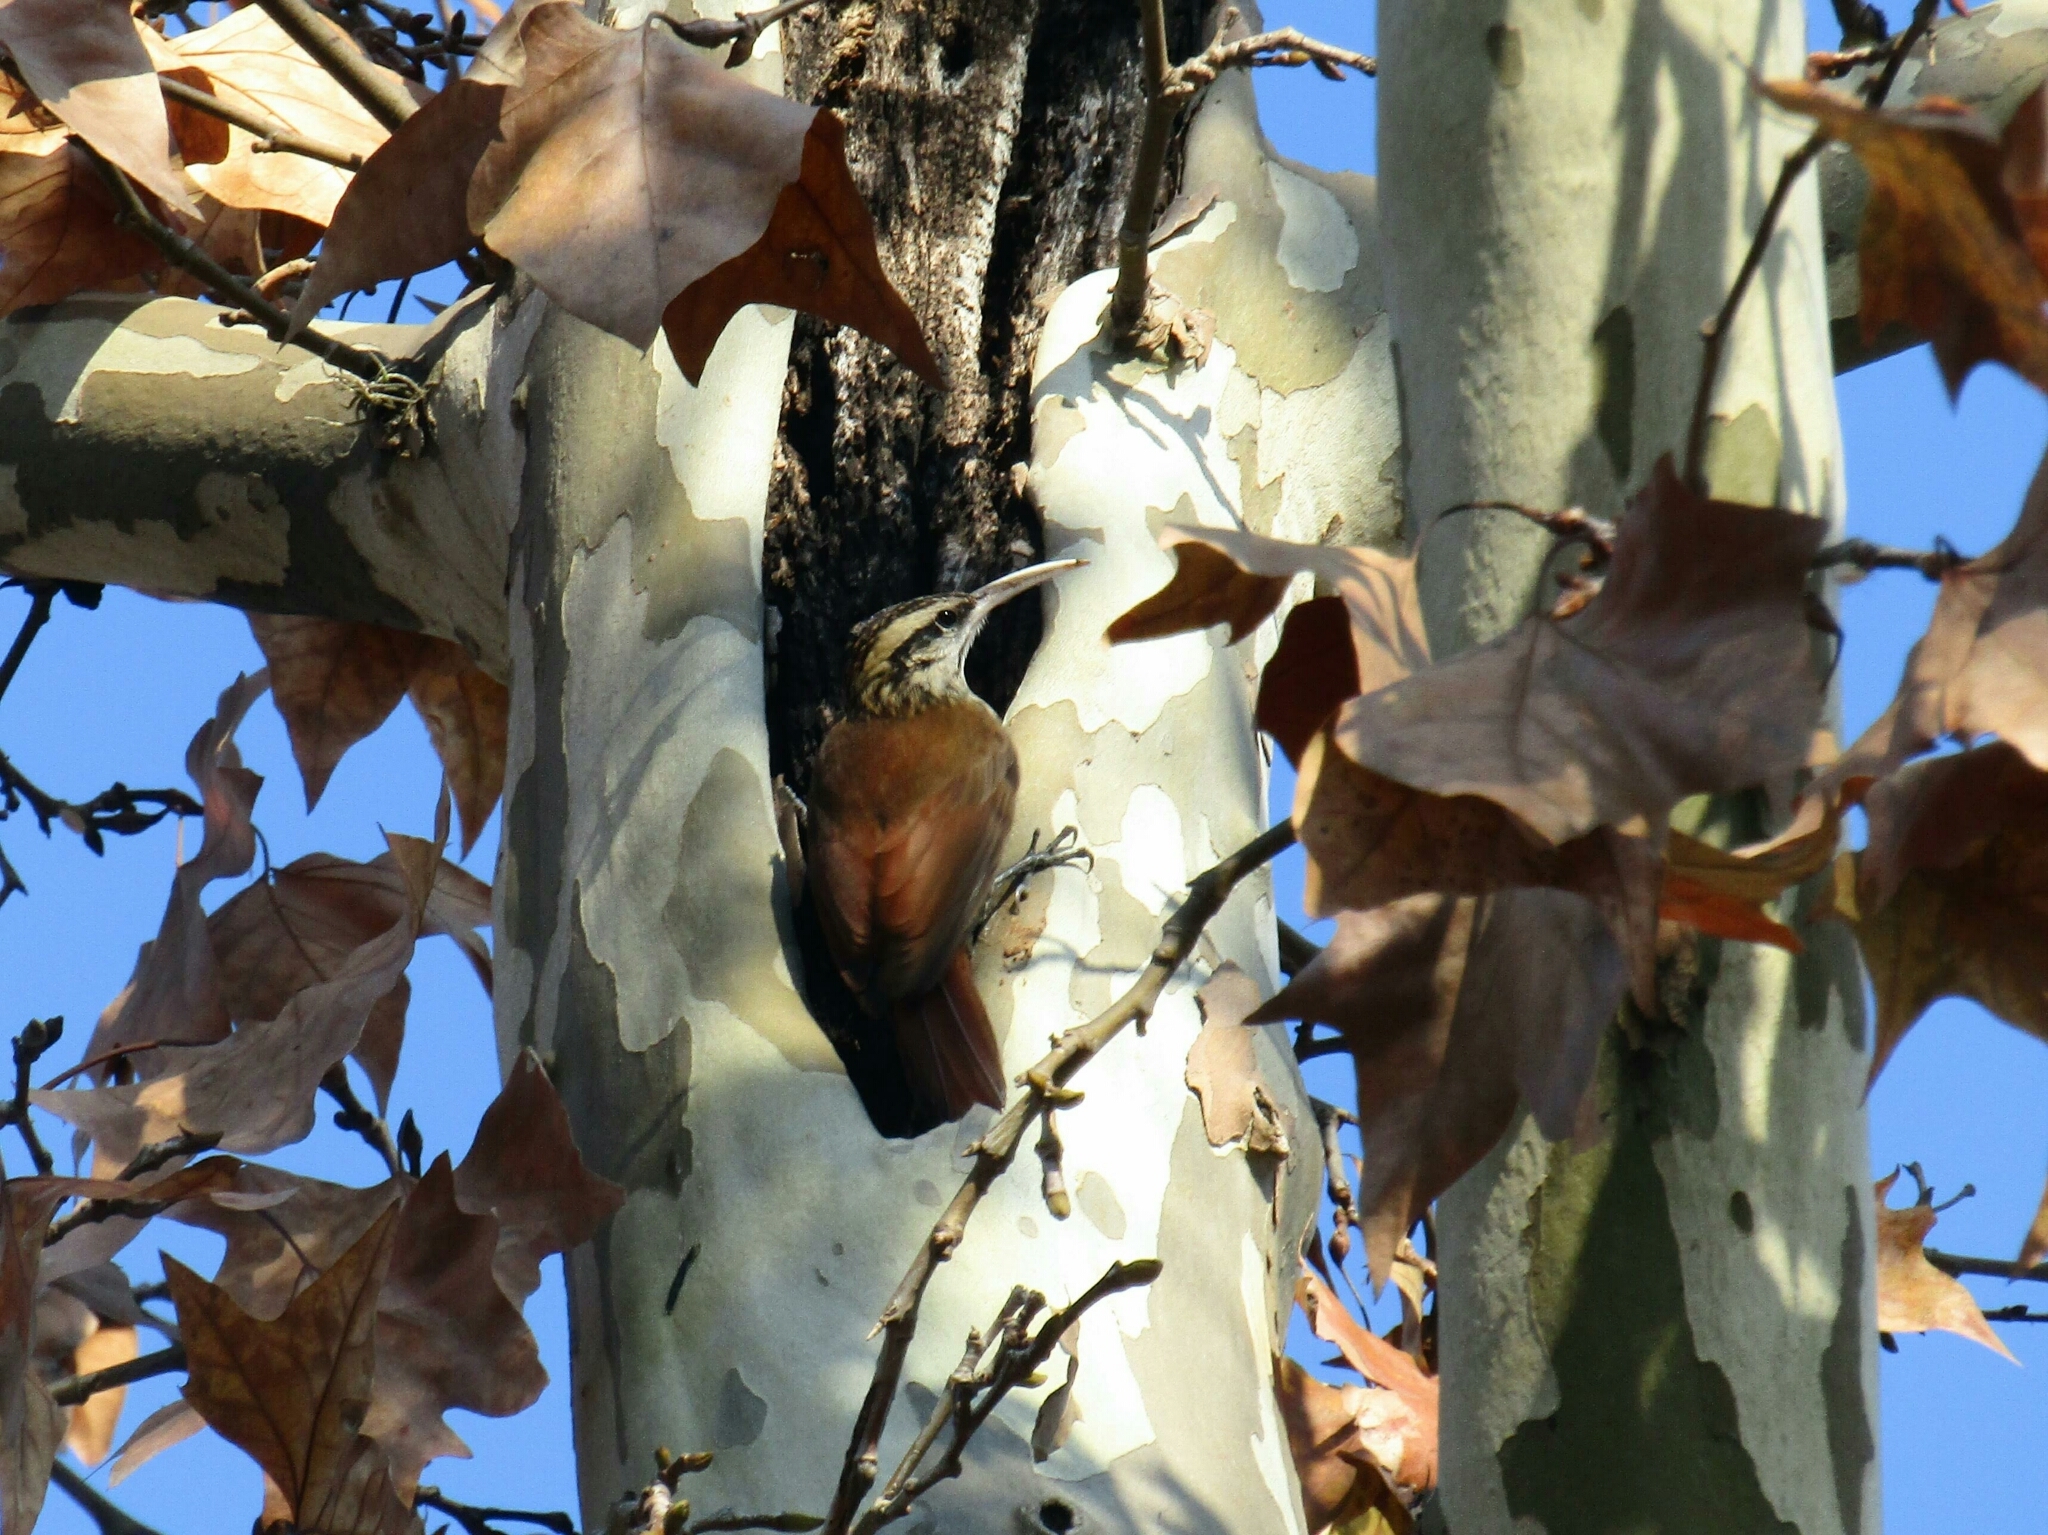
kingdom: Animalia
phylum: Chordata
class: Aves
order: Passeriformes
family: Furnariidae
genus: Lepidocolaptes
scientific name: Lepidocolaptes angustirostris
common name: Narrow-billed woodcreeper
